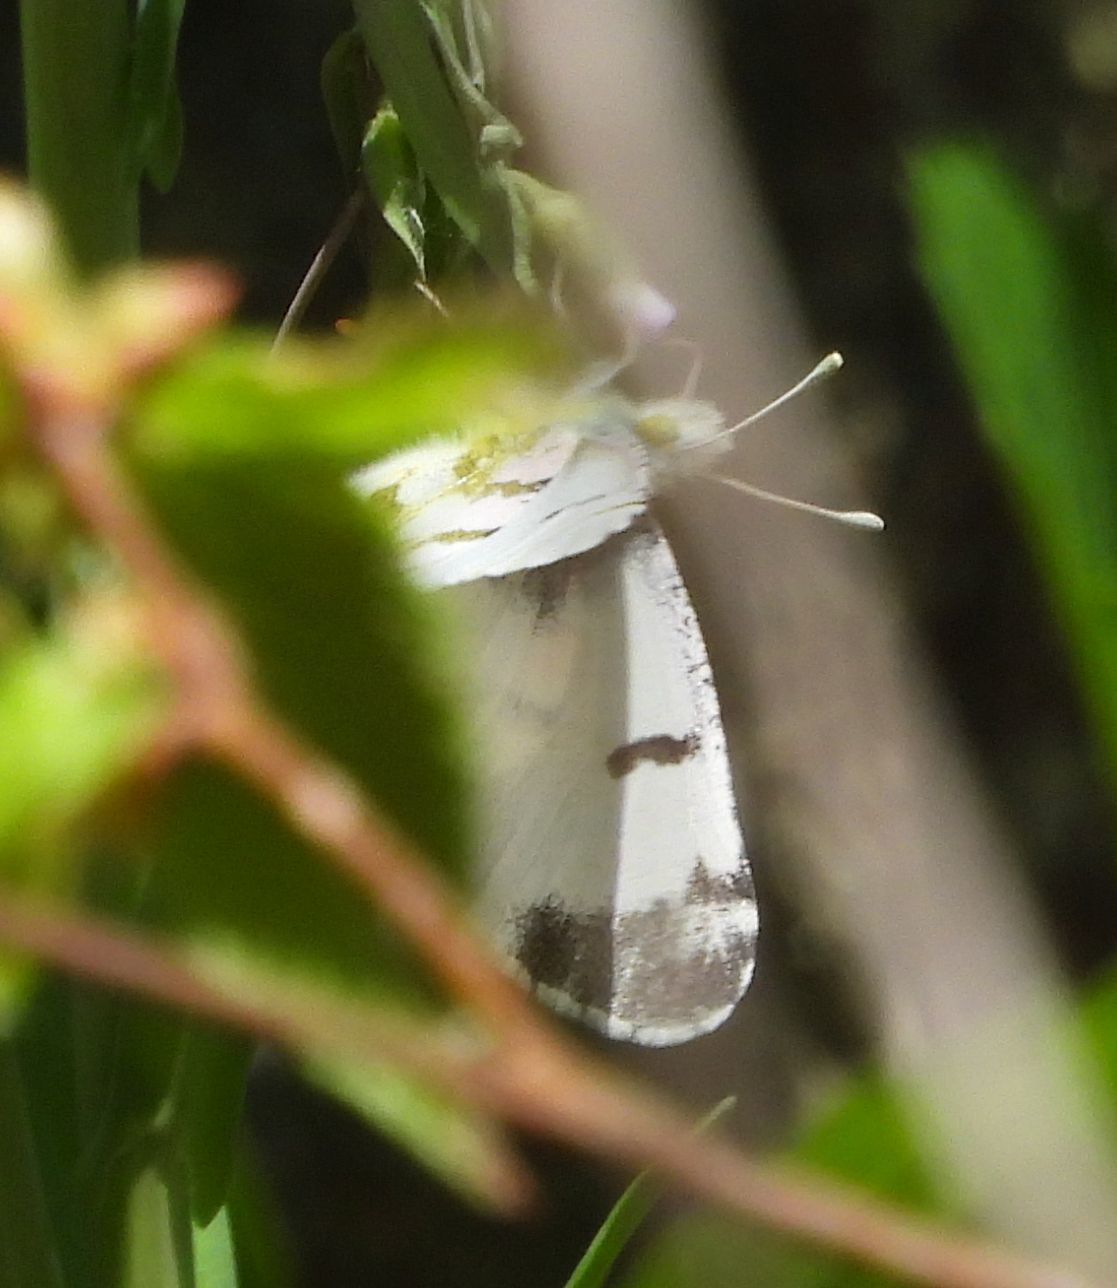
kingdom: Animalia
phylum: Arthropoda
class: Insecta
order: Lepidoptera
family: Pieridae
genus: Euchloe
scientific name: Euchloe olympia
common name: Olympia
